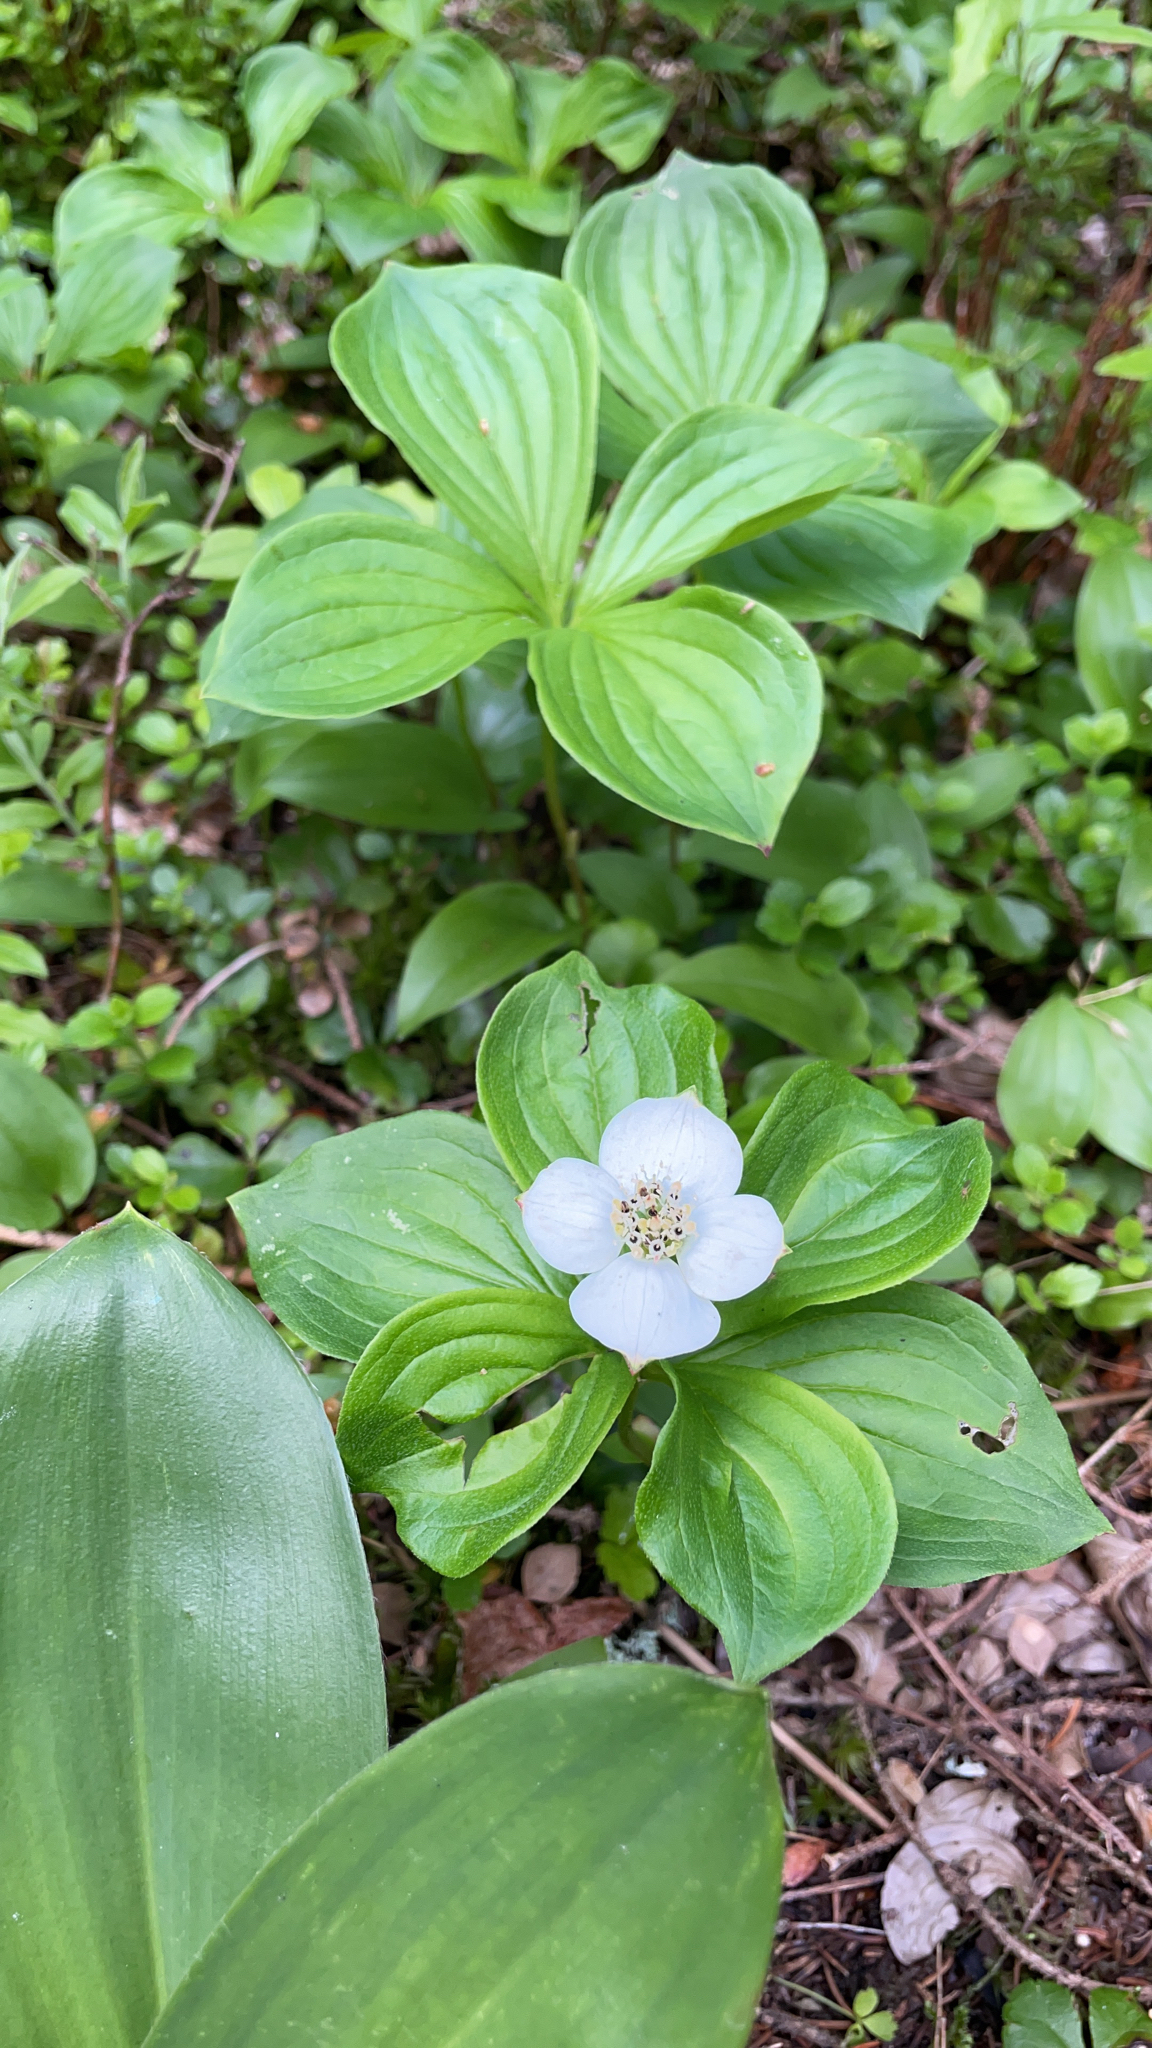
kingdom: Plantae
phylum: Tracheophyta
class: Magnoliopsida
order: Cornales
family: Cornaceae
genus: Cornus
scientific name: Cornus canadensis
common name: Creeping dogwood
